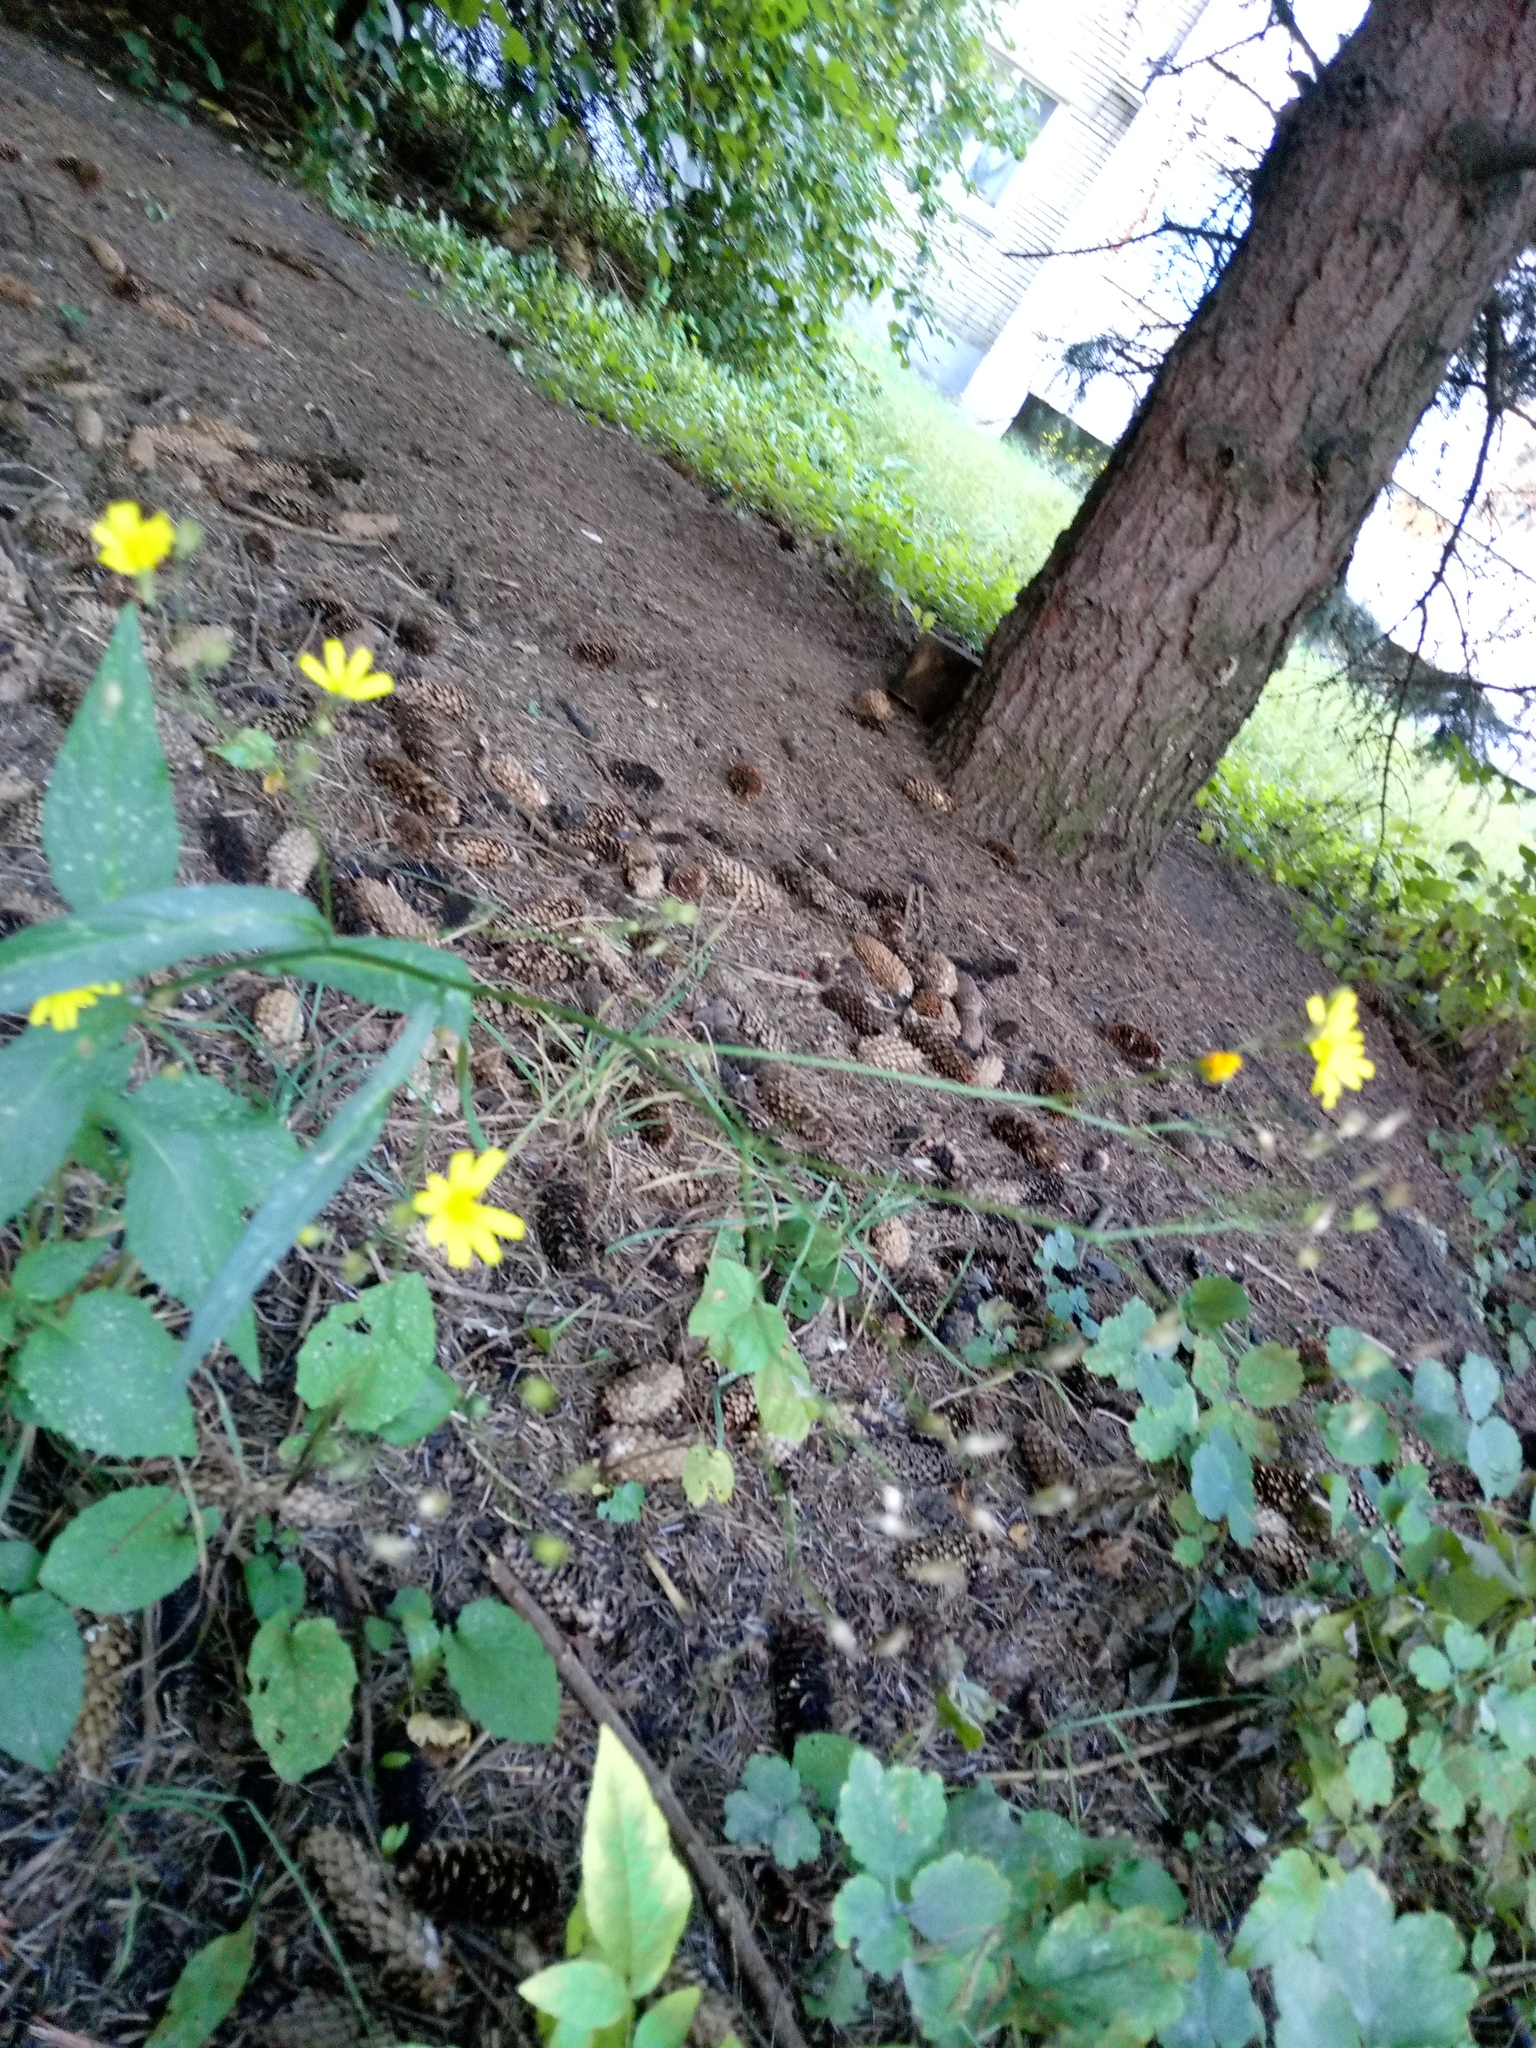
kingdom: Plantae
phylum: Tracheophyta
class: Magnoliopsida
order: Asterales
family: Asteraceae
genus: Lapsana
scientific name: Lapsana communis
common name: Nipplewort
